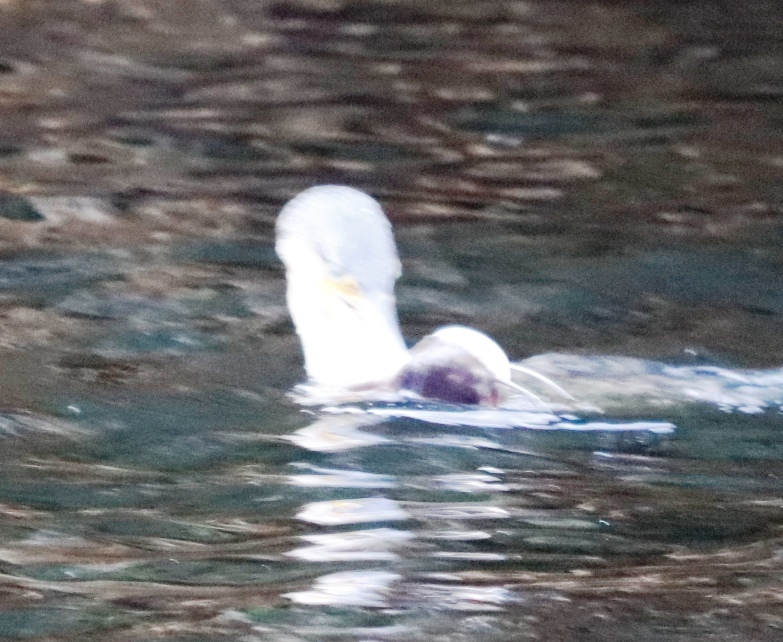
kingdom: Animalia
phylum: Chordata
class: Aves
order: Suliformes
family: Phalacrocoracidae
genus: Phalacrocorax
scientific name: Phalacrocorax carbo
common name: Great cormorant
